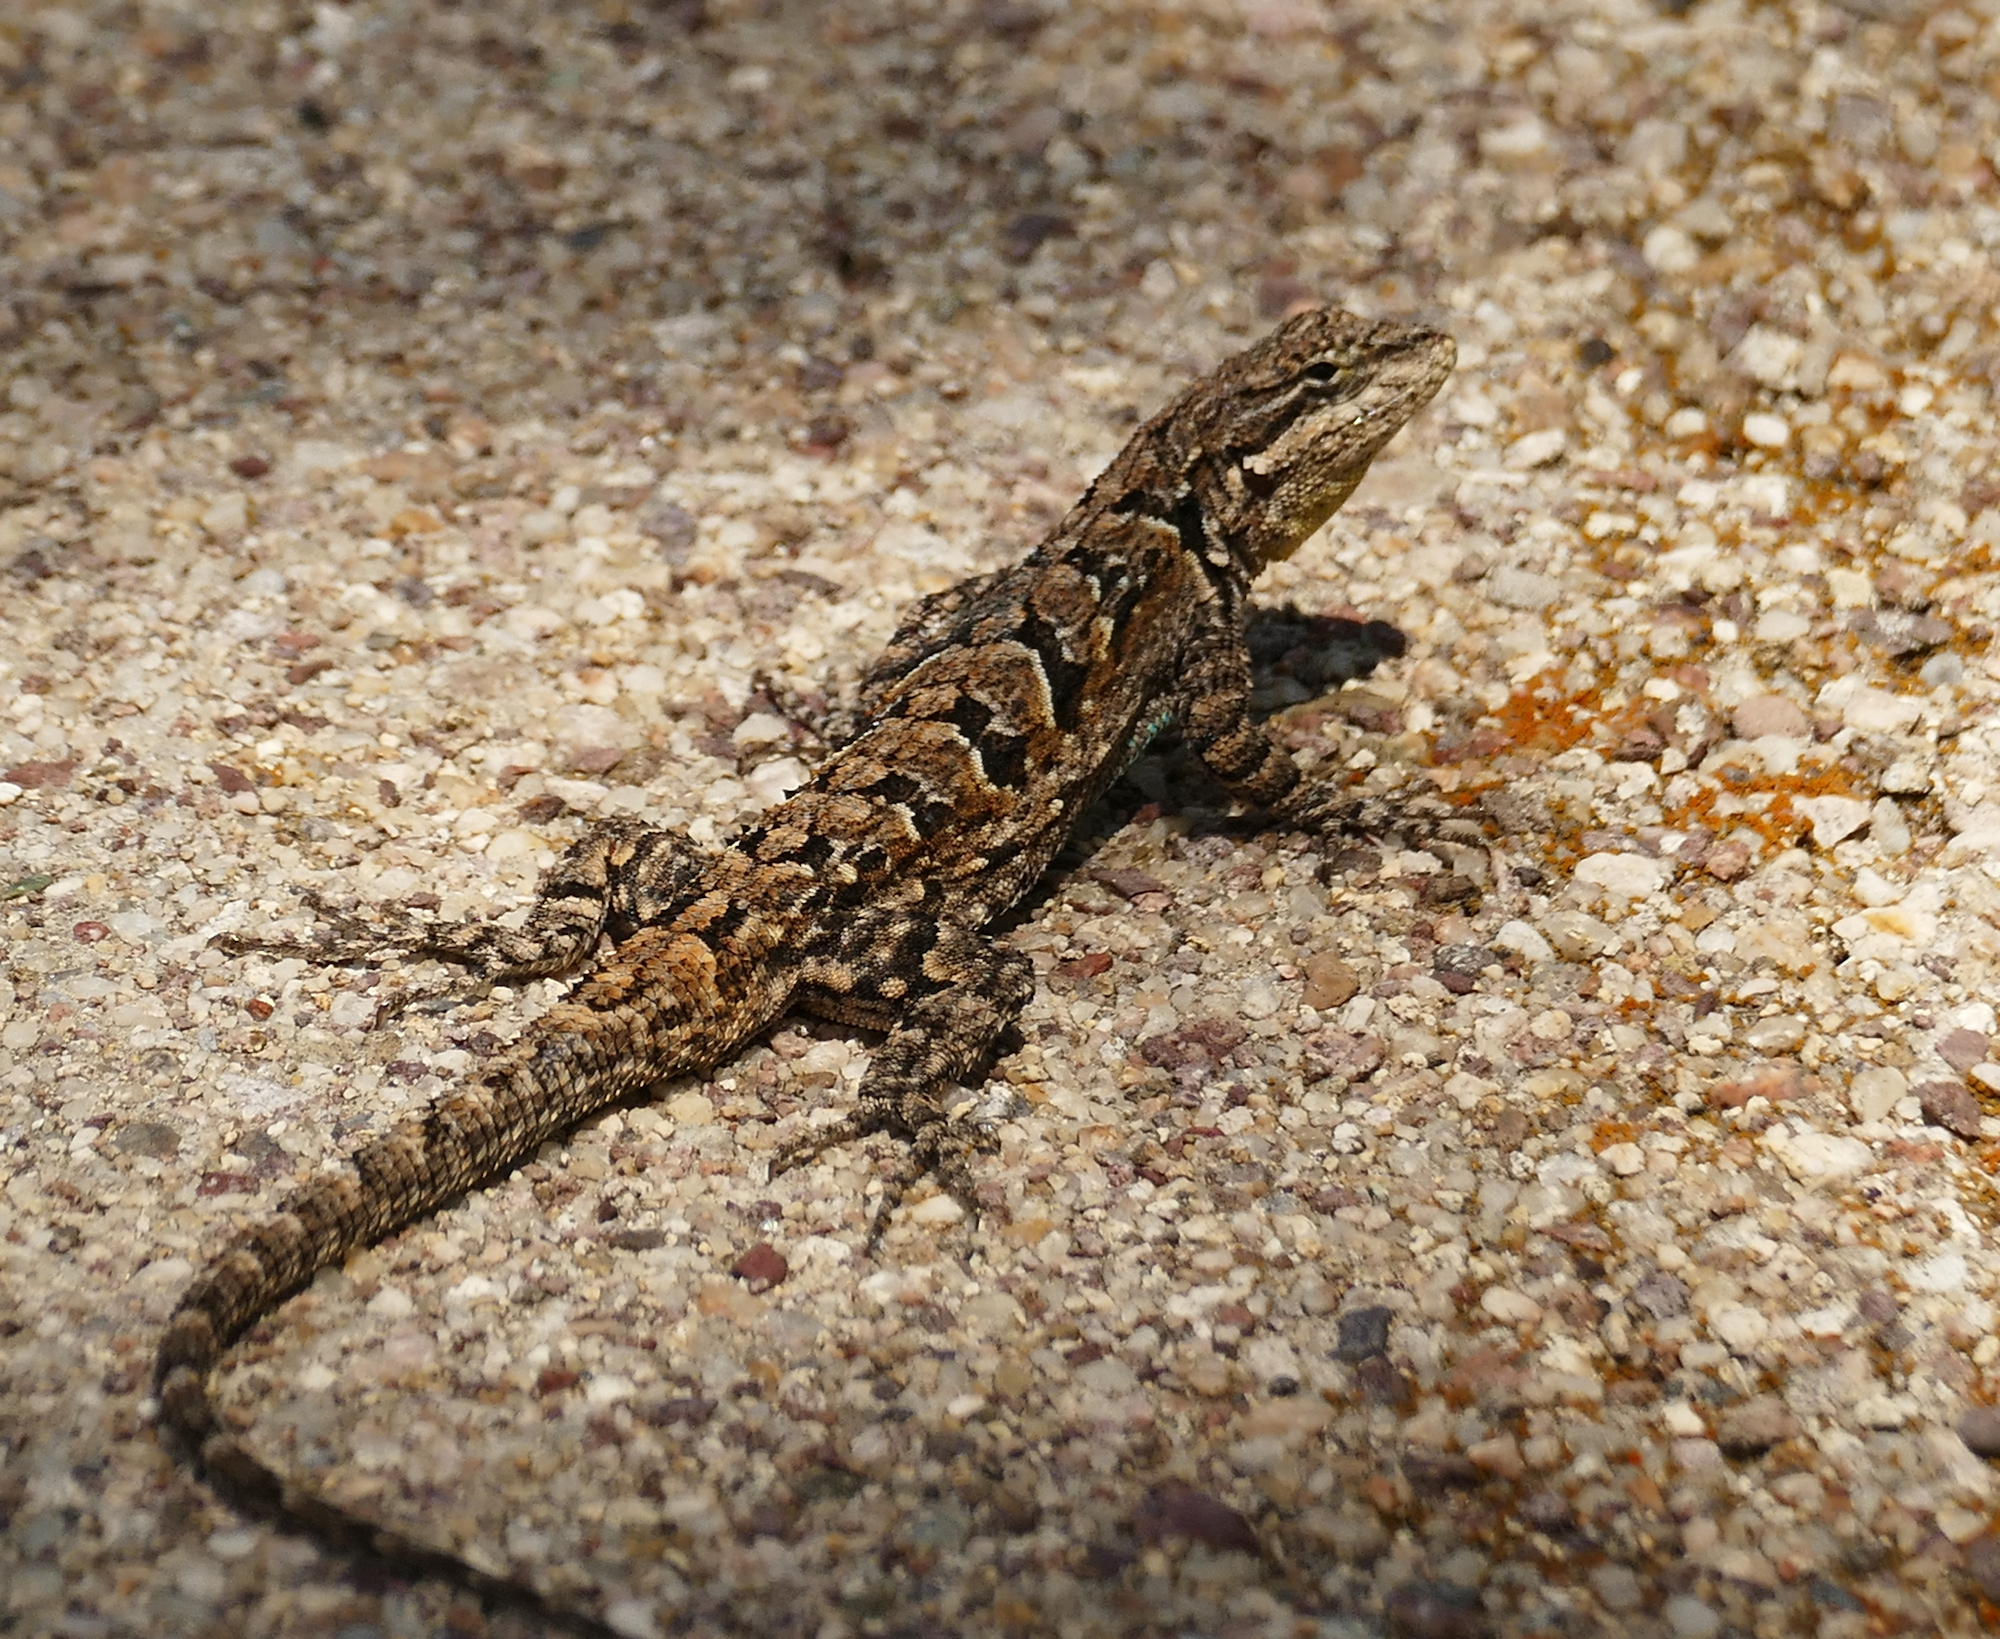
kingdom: Animalia
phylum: Chordata
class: Squamata
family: Phrynosomatidae
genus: Urosaurus
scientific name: Urosaurus ornatus
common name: Ornate tree lizard
